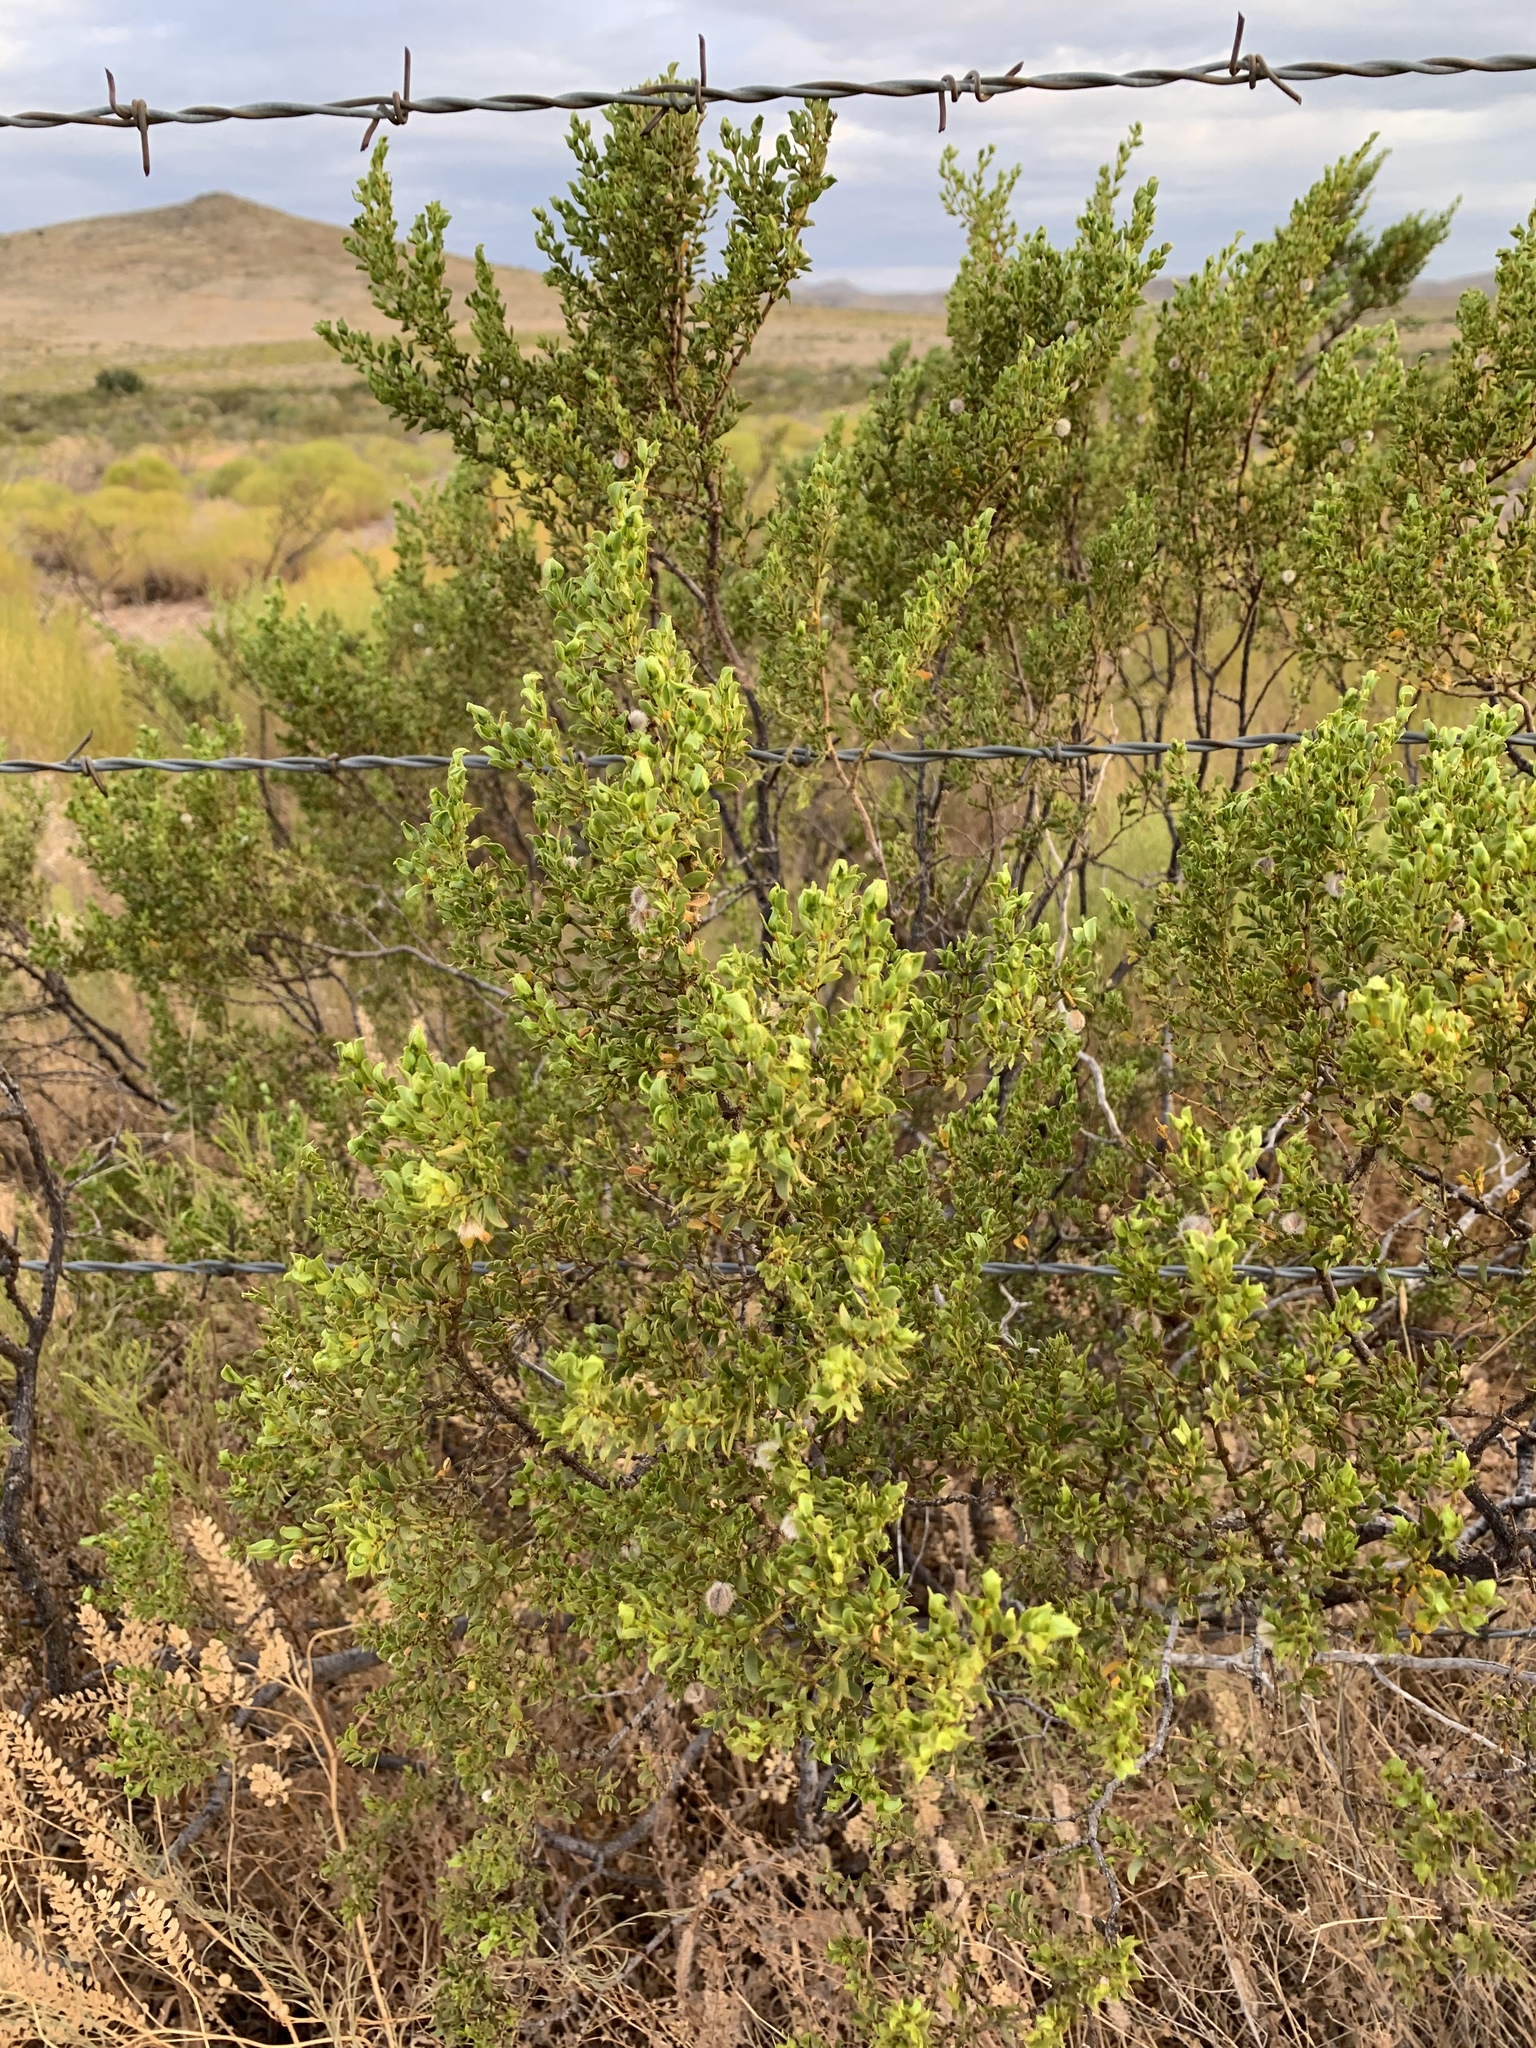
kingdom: Plantae
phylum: Tracheophyta
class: Magnoliopsida
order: Zygophyllales
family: Zygophyllaceae
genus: Larrea
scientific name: Larrea tridentata
